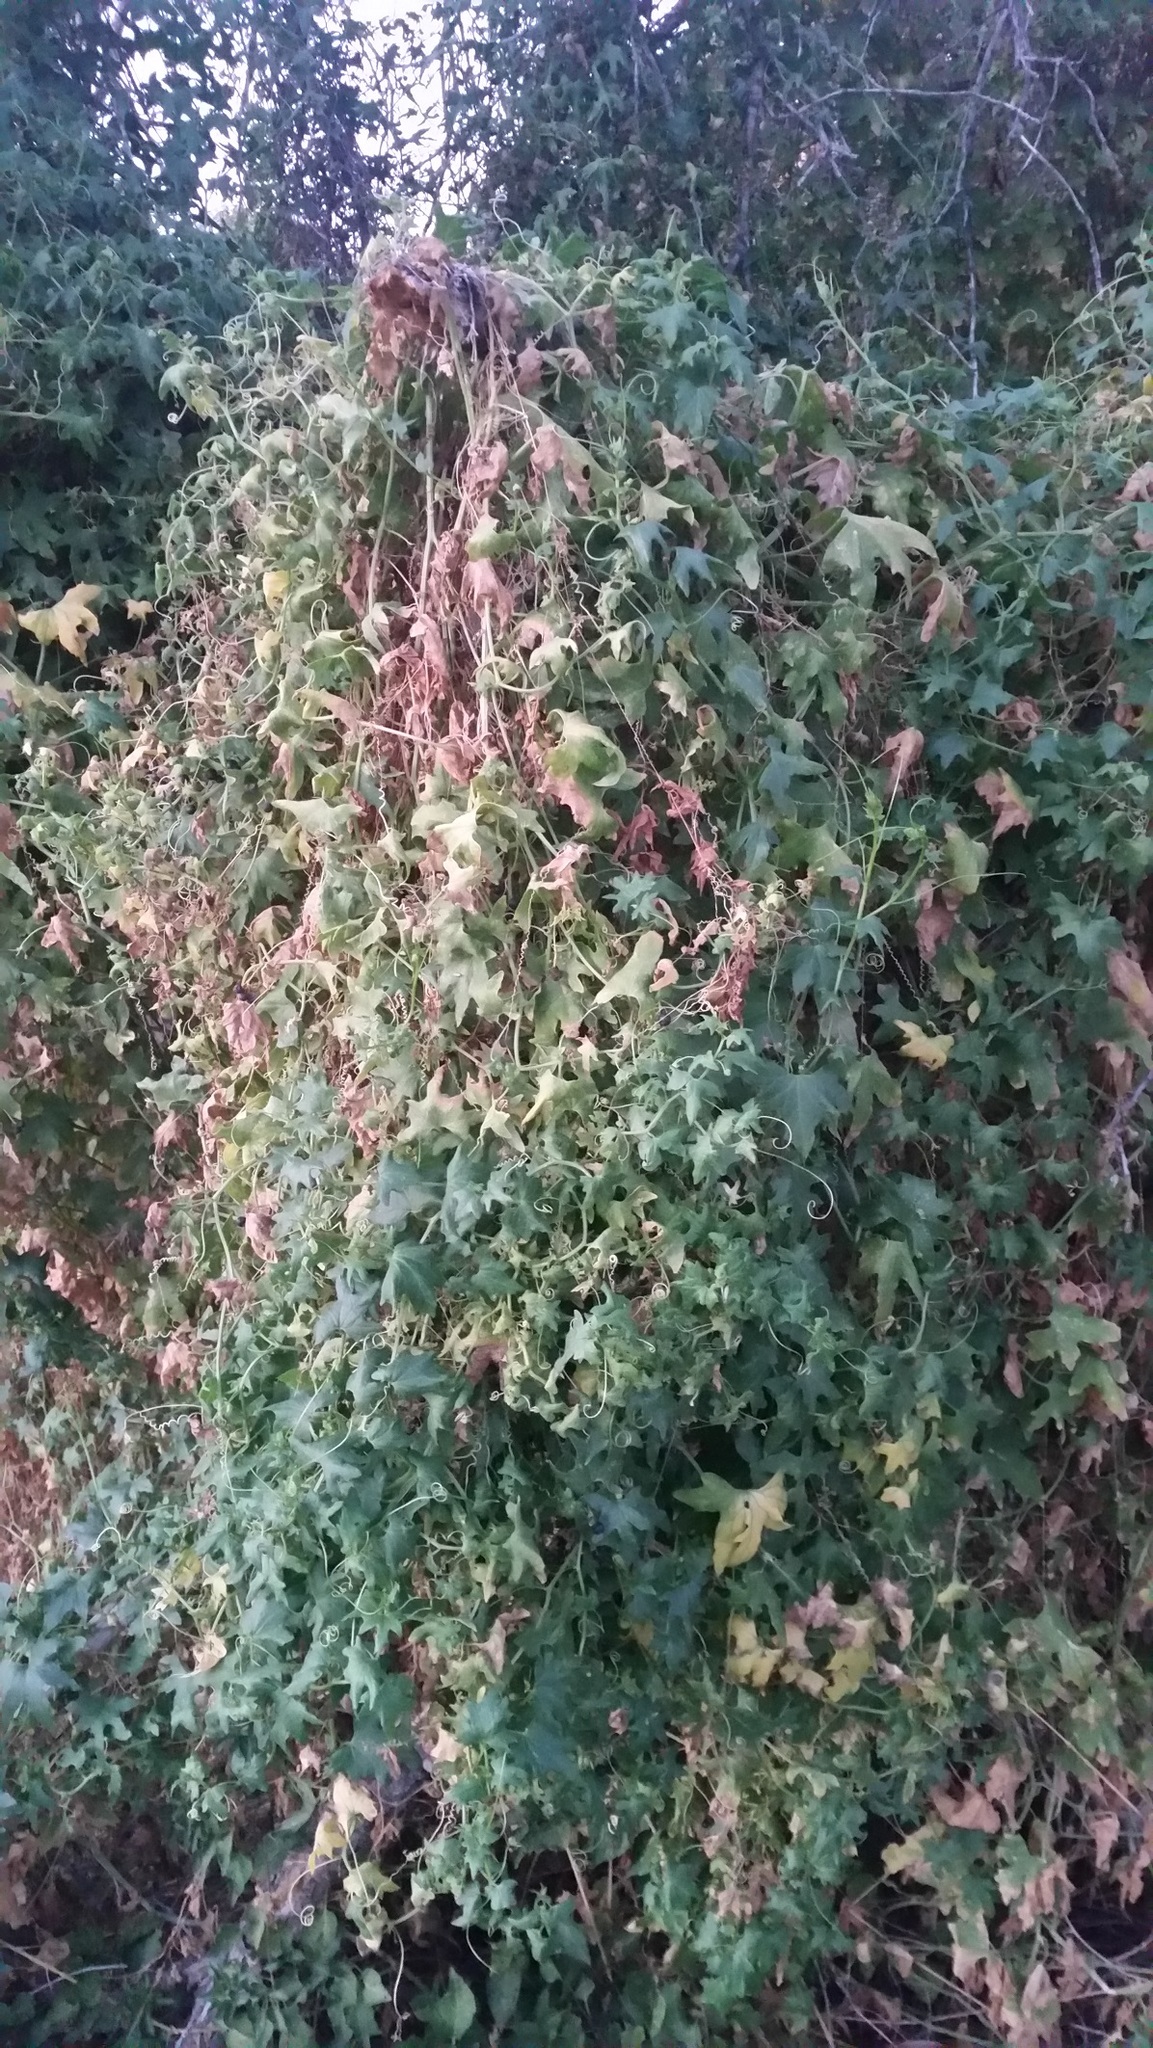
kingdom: Plantae
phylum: Tracheophyta
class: Magnoliopsida
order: Cucurbitales
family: Cucurbitaceae
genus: Bryonia
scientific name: Bryonia alba
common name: White bryony
